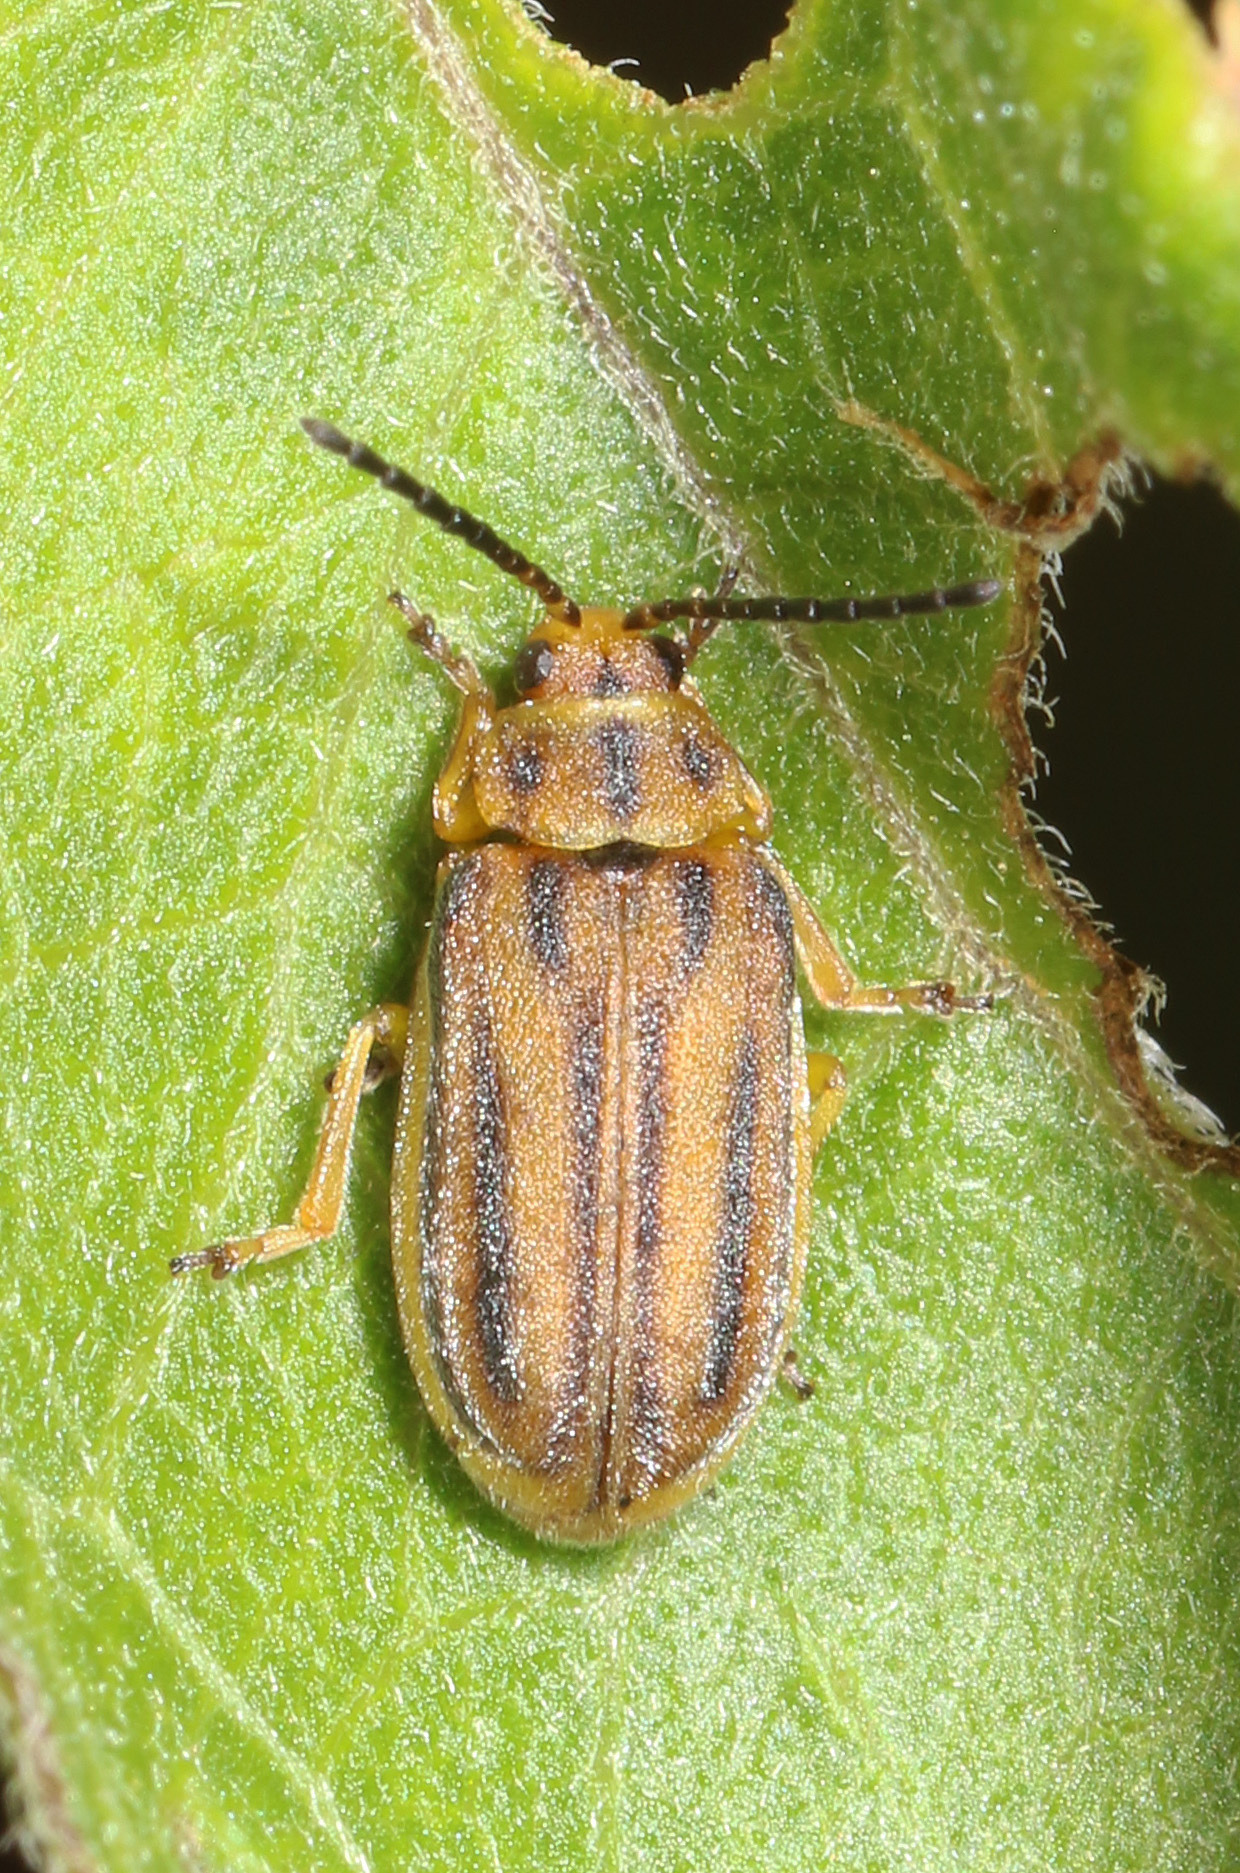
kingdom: Animalia
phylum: Arthropoda
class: Insecta
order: Coleoptera
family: Chrysomelidae
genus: Ophraella
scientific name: Ophraella notata
